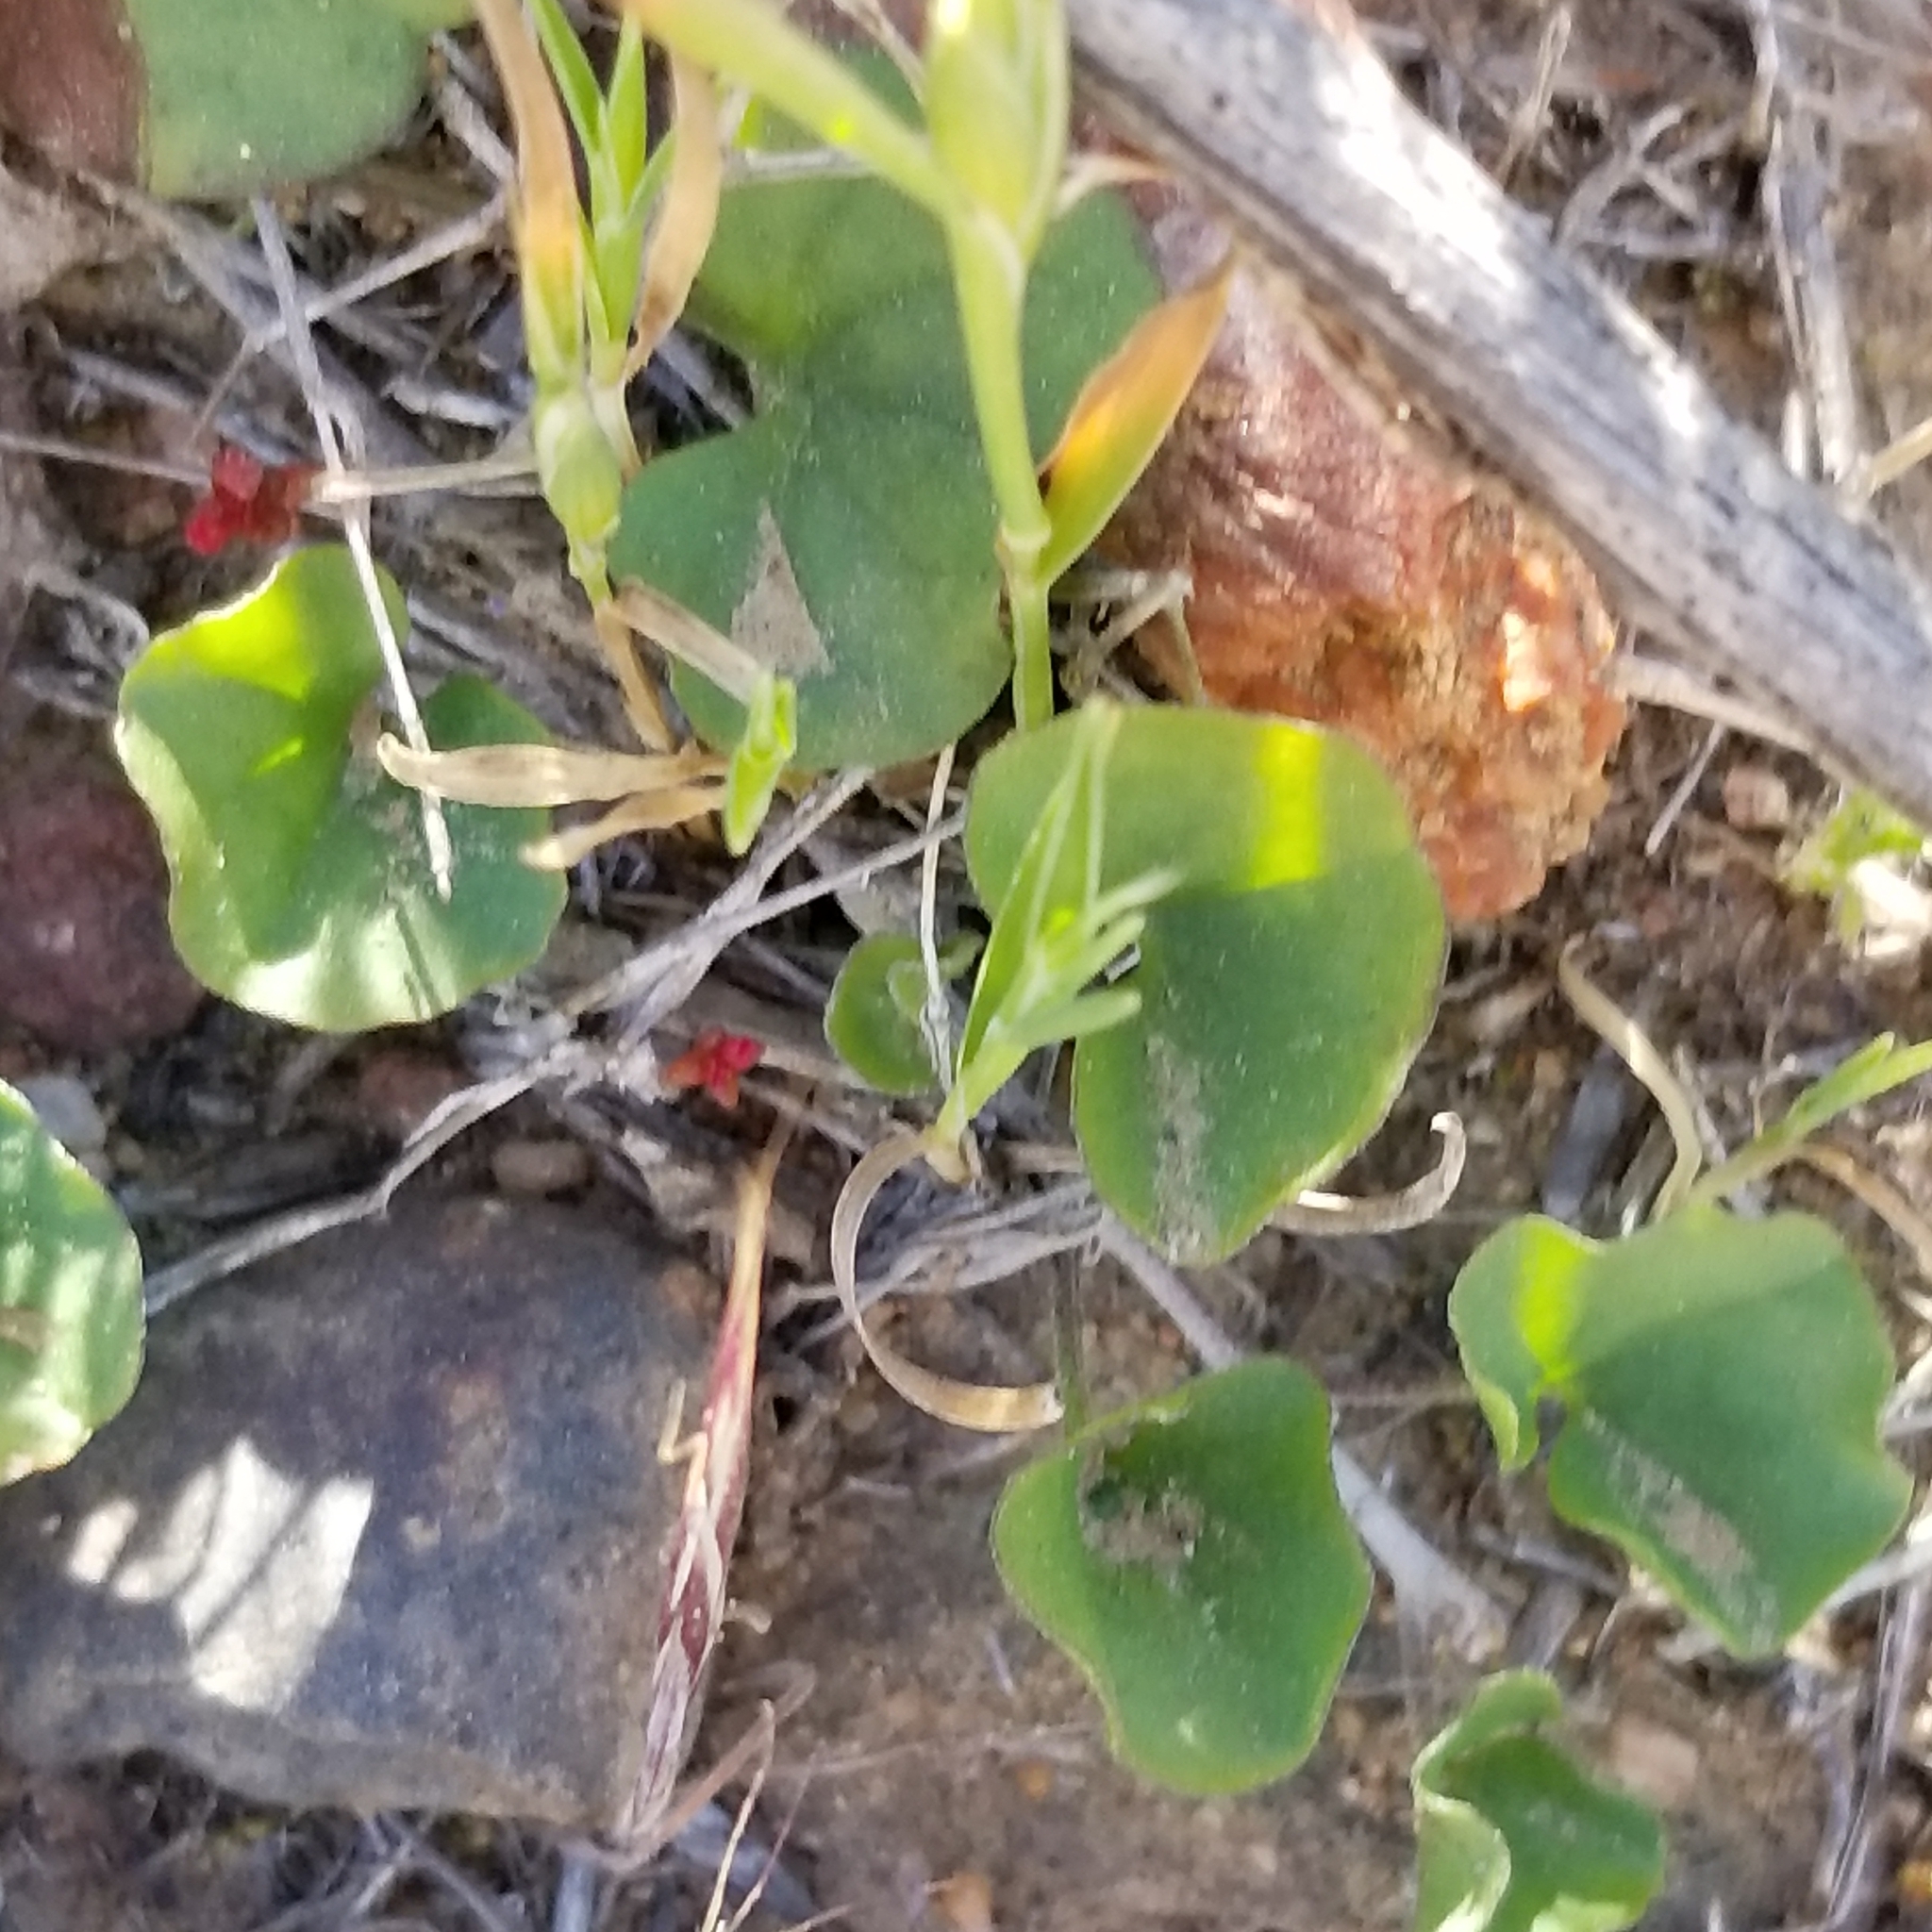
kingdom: Plantae
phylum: Tracheophyta
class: Magnoliopsida
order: Solanales
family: Convolvulaceae
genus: Dichondra
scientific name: Dichondra occidentalis
